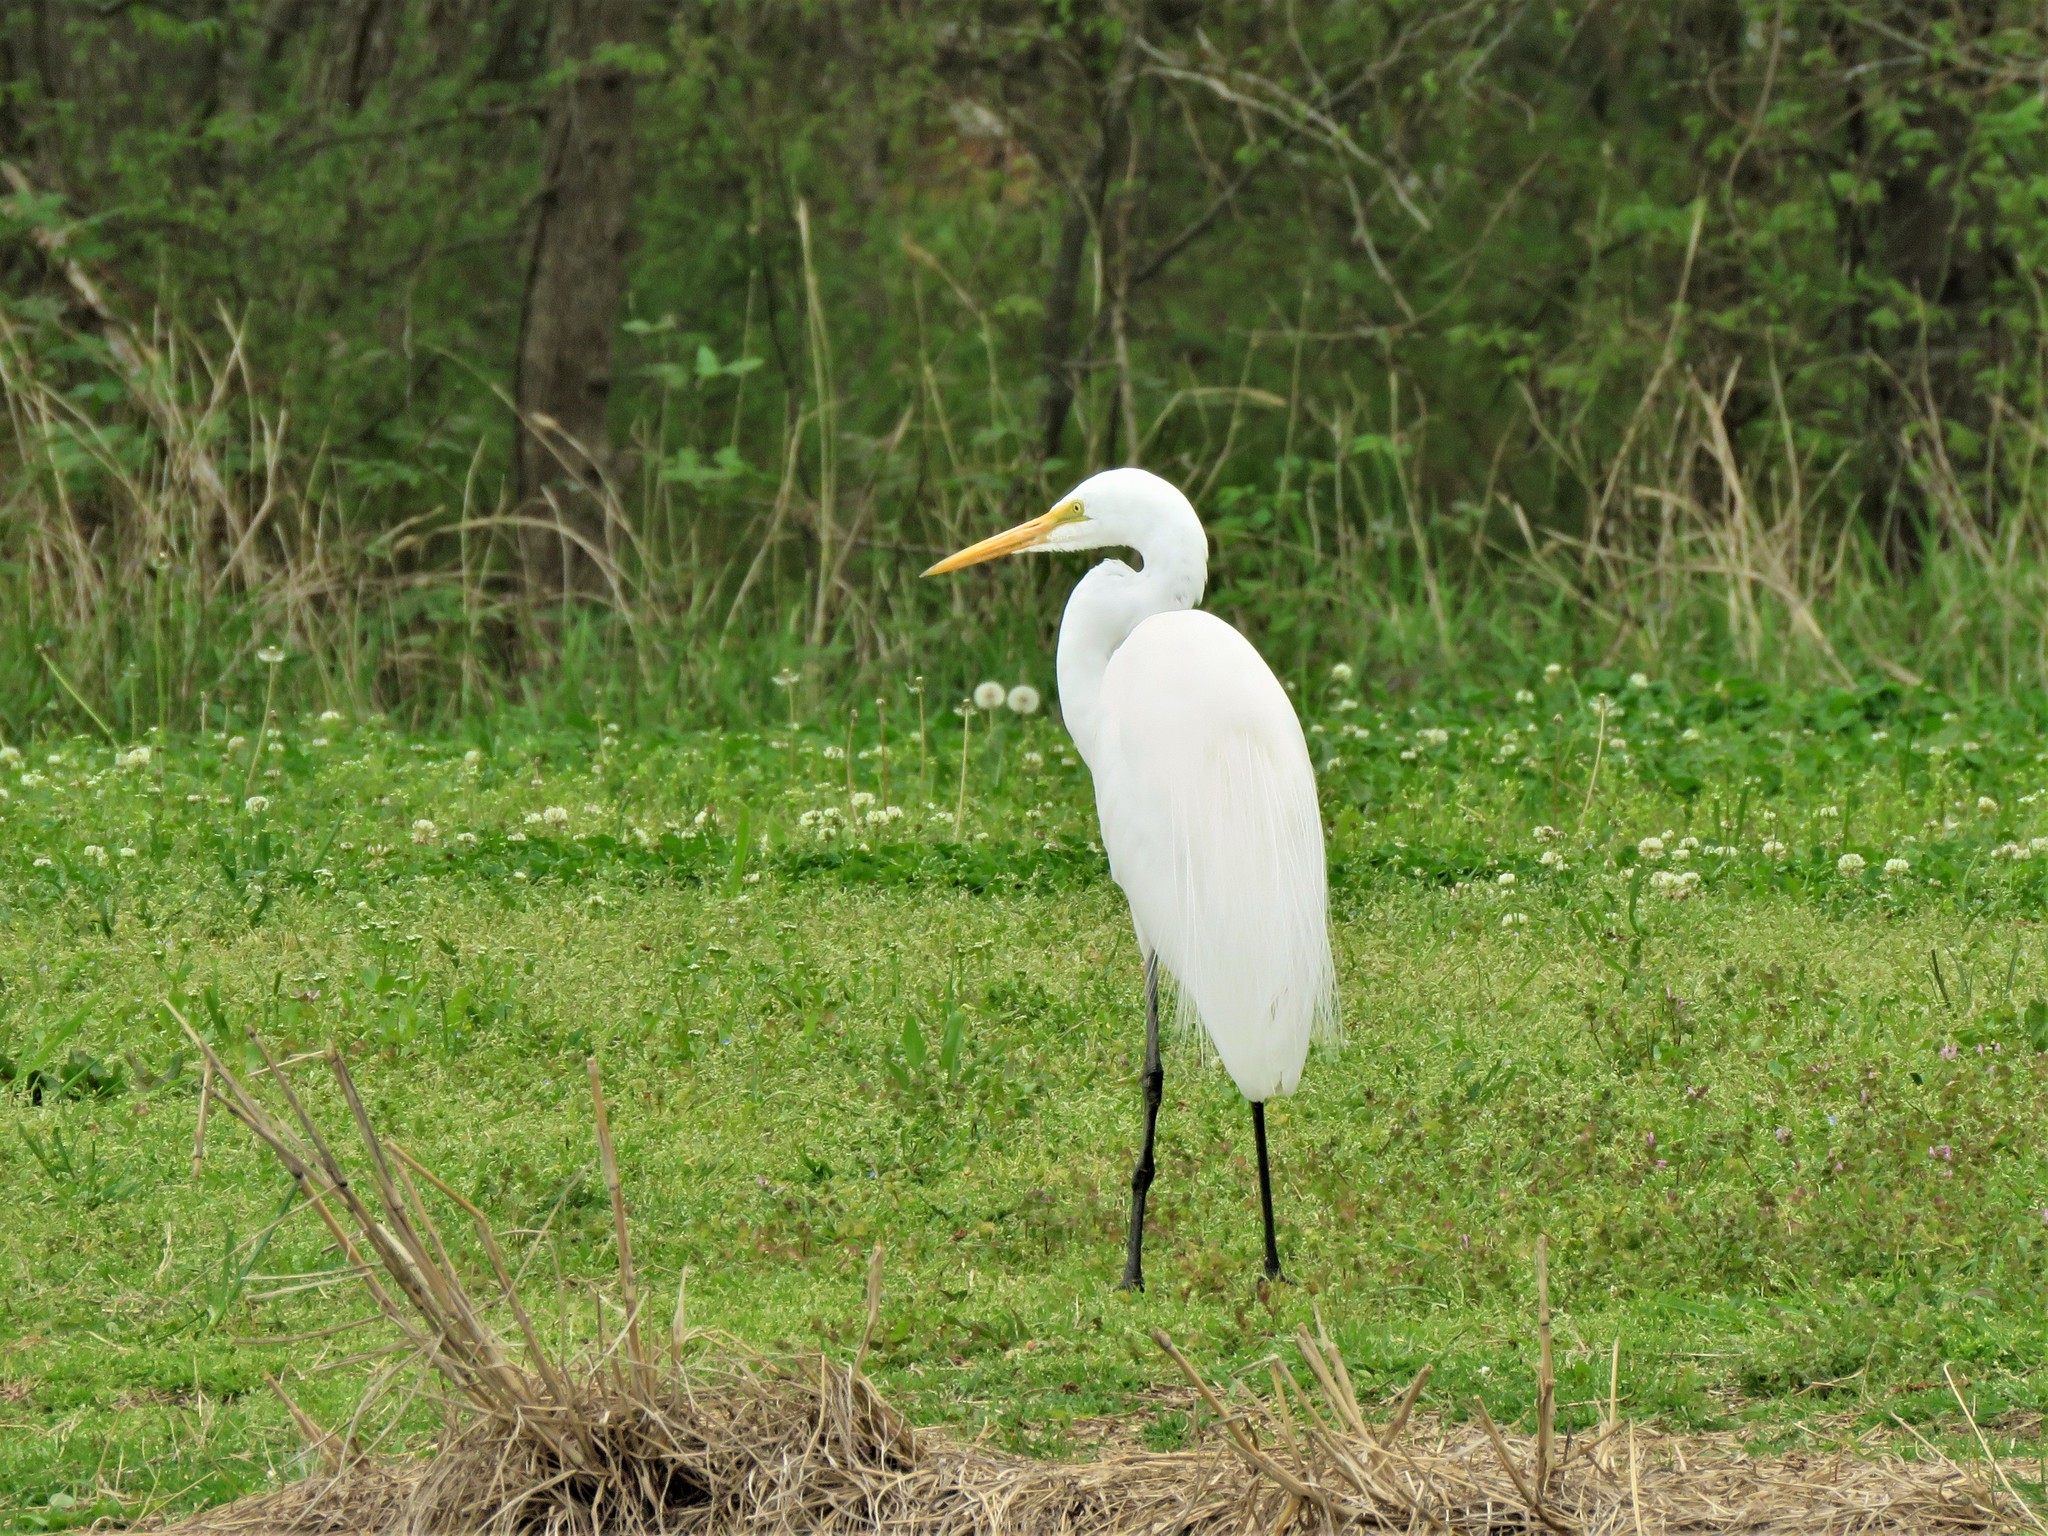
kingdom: Animalia
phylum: Chordata
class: Aves
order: Pelecaniformes
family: Ardeidae
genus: Ardea
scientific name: Ardea alba
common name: Great egret
